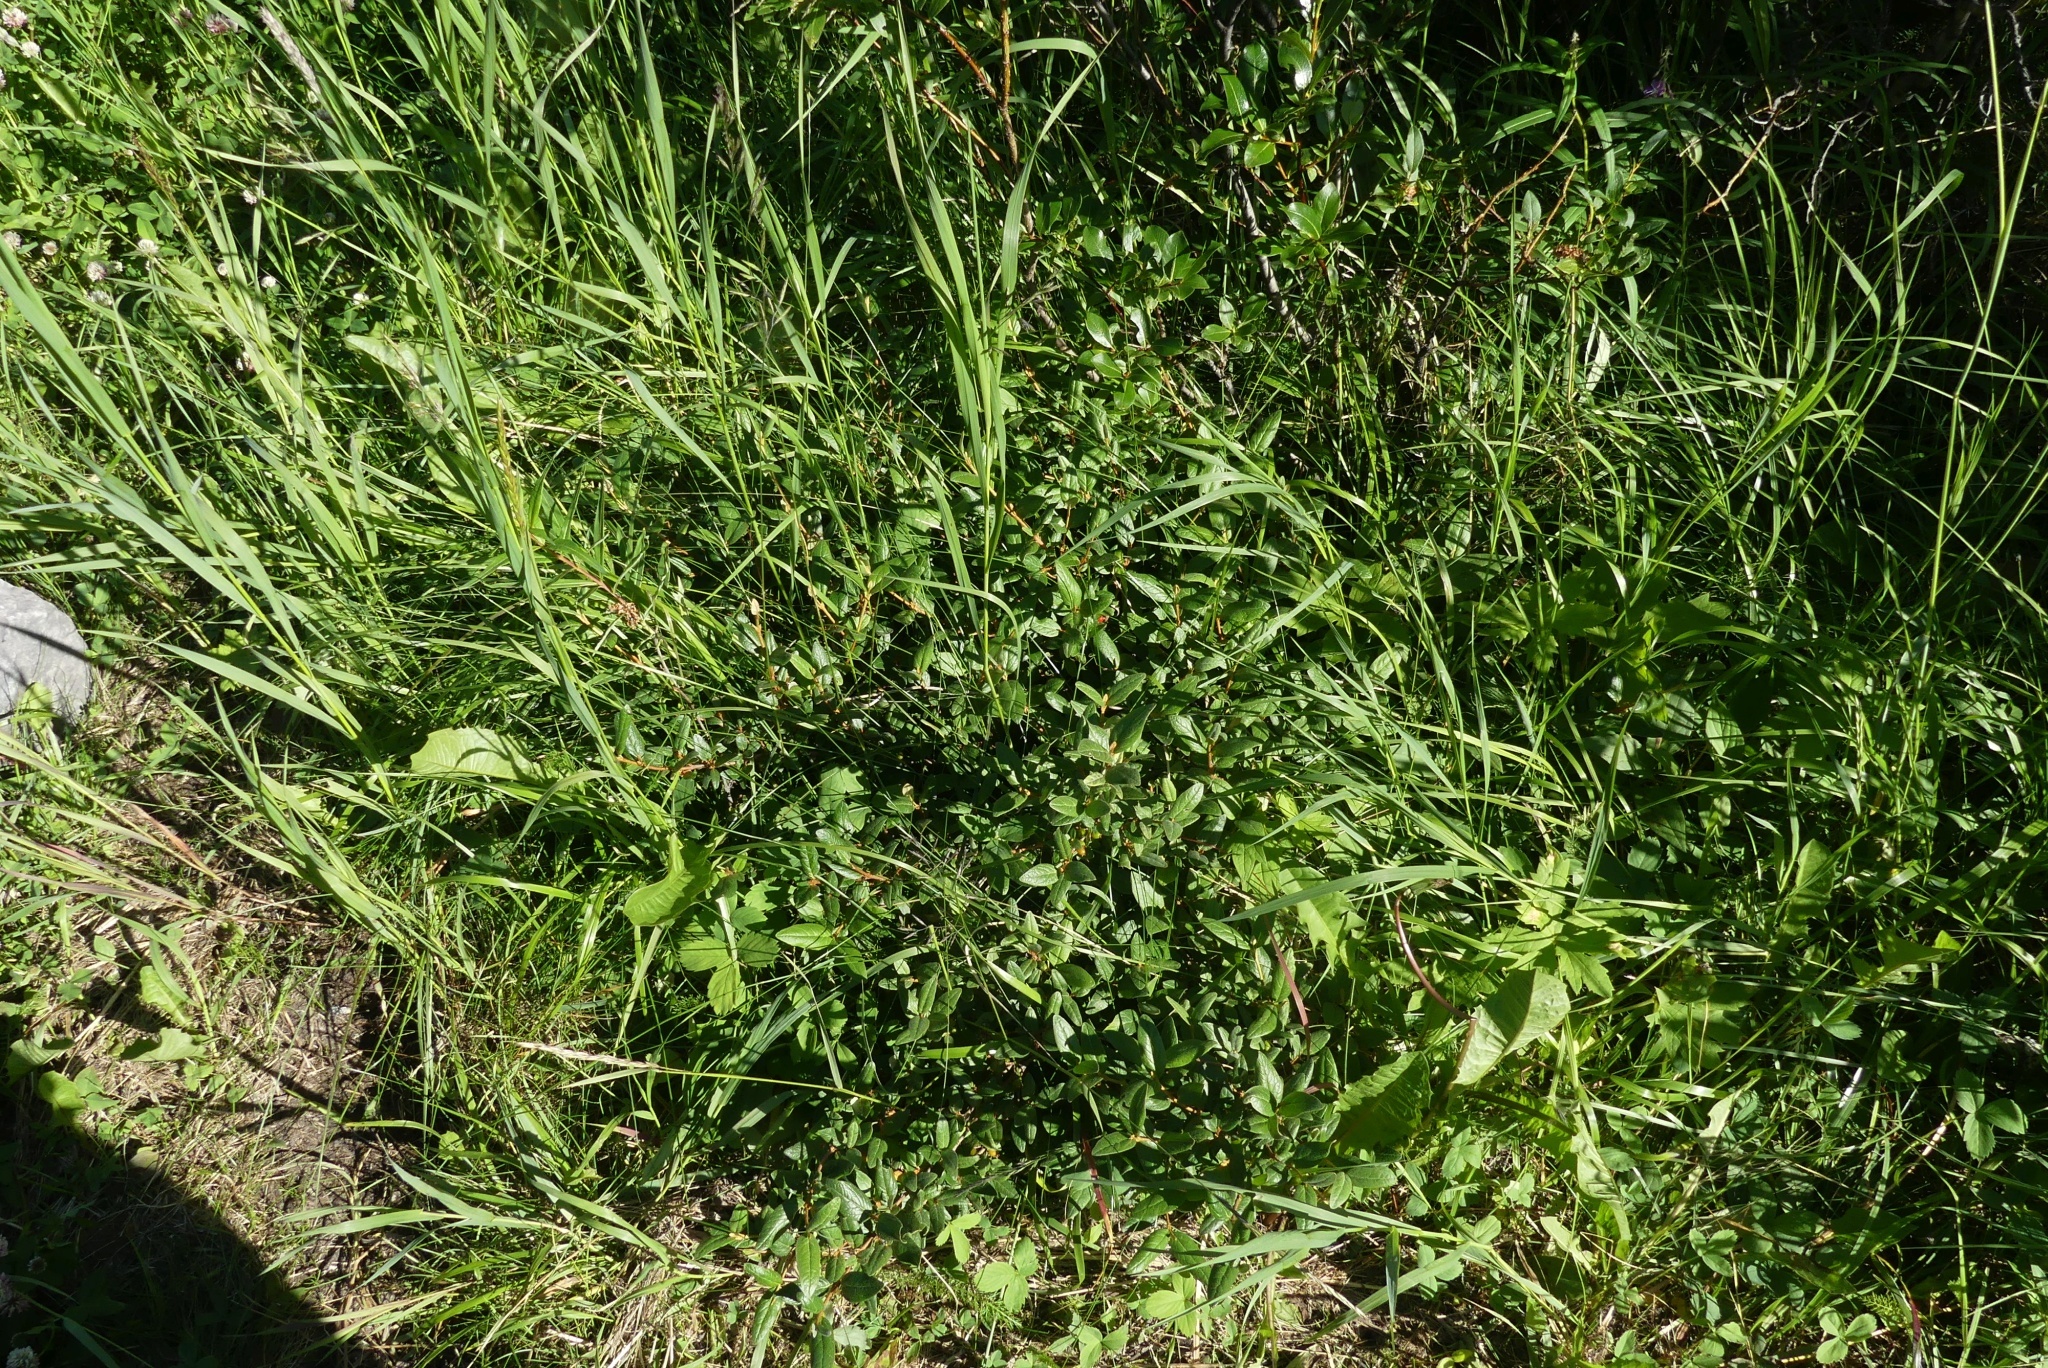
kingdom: Plantae
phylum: Tracheophyta
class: Magnoliopsida
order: Rosales
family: Elaeagnaceae
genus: Shepherdia
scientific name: Shepherdia canadensis
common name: Soapberry
